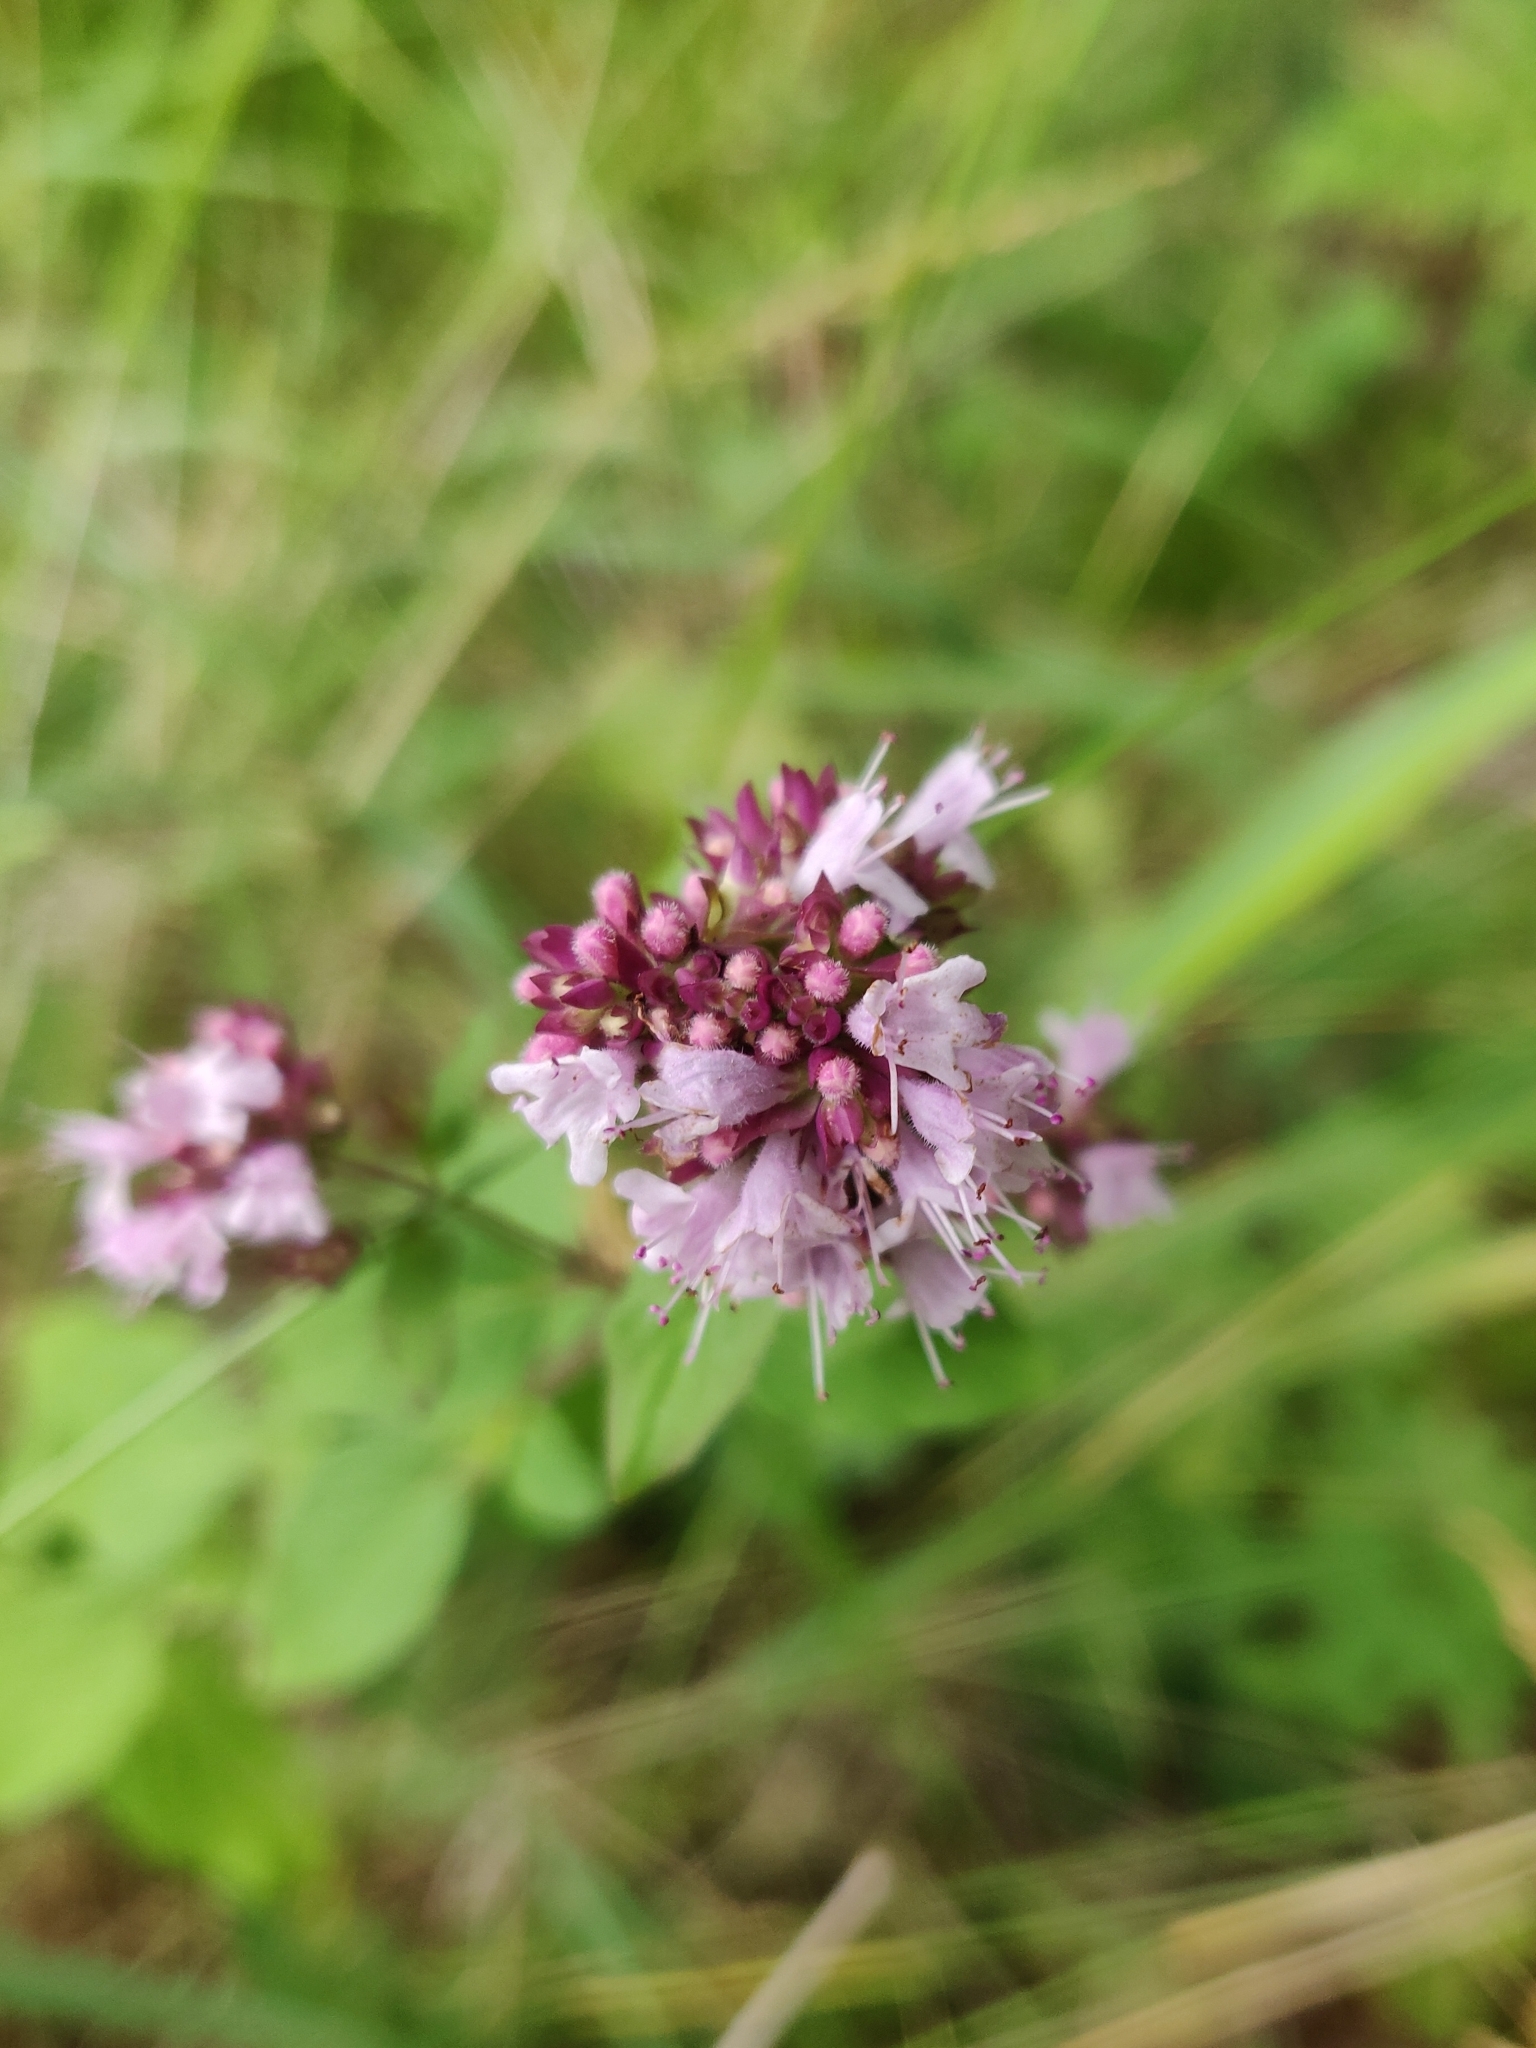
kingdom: Plantae
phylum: Tracheophyta
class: Magnoliopsida
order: Lamiales
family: Lamiaceae
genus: Origanum
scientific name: Origanum vulgare
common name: Wild marjoram
